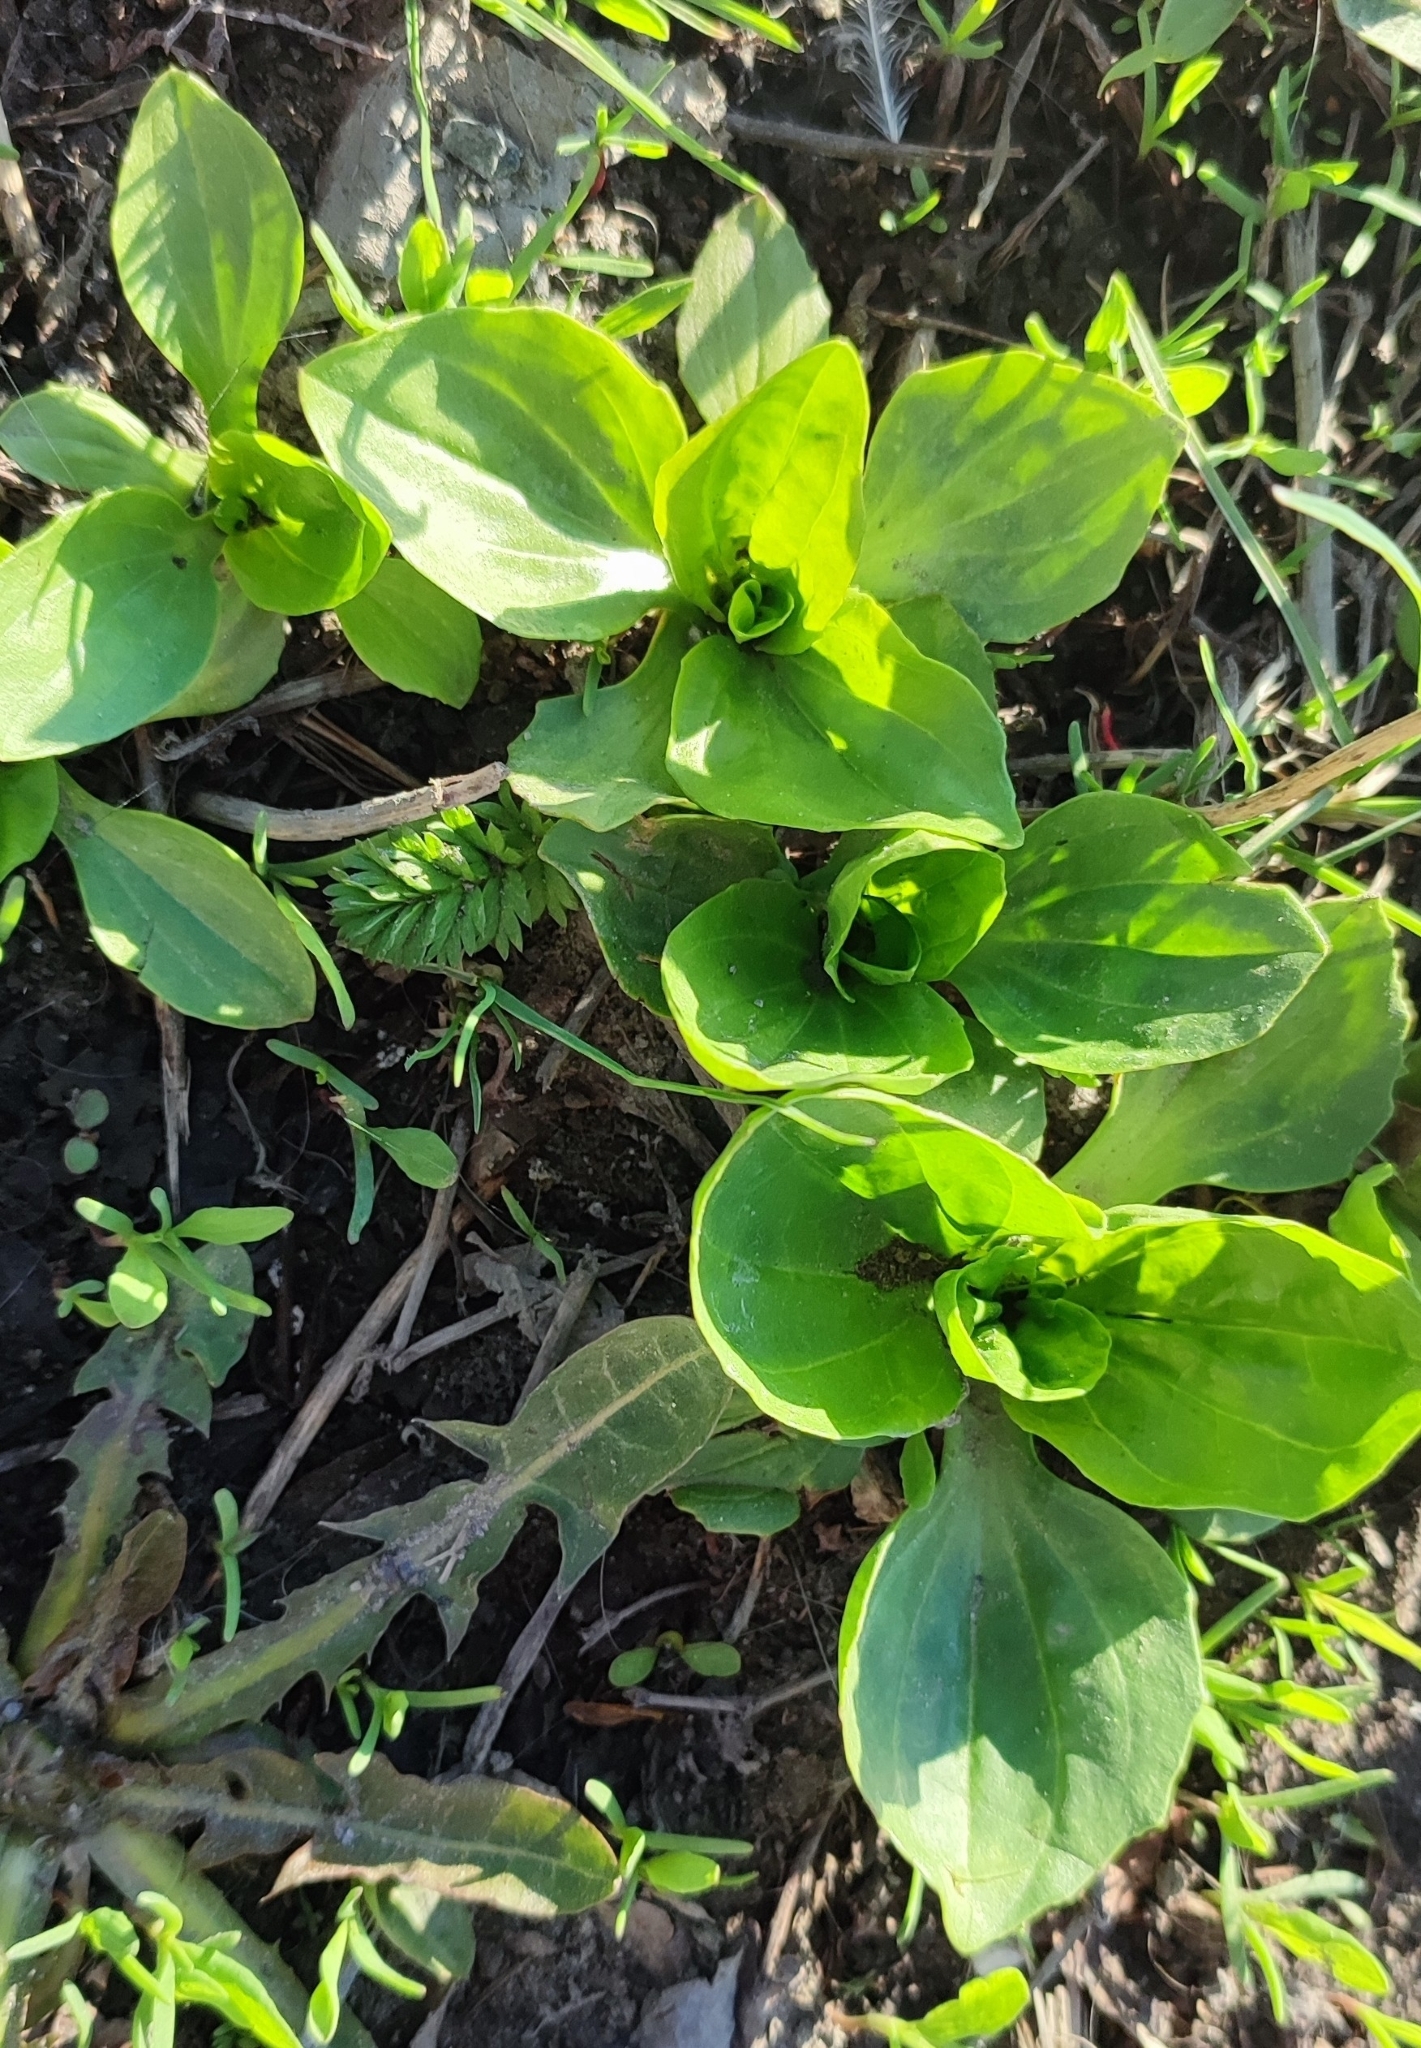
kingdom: Plantae
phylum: Tracheophyta
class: Magnoliopsida
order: Lamiales
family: Plantaginaceae
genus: Plantago
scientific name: Plantago major
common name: Common plantain
